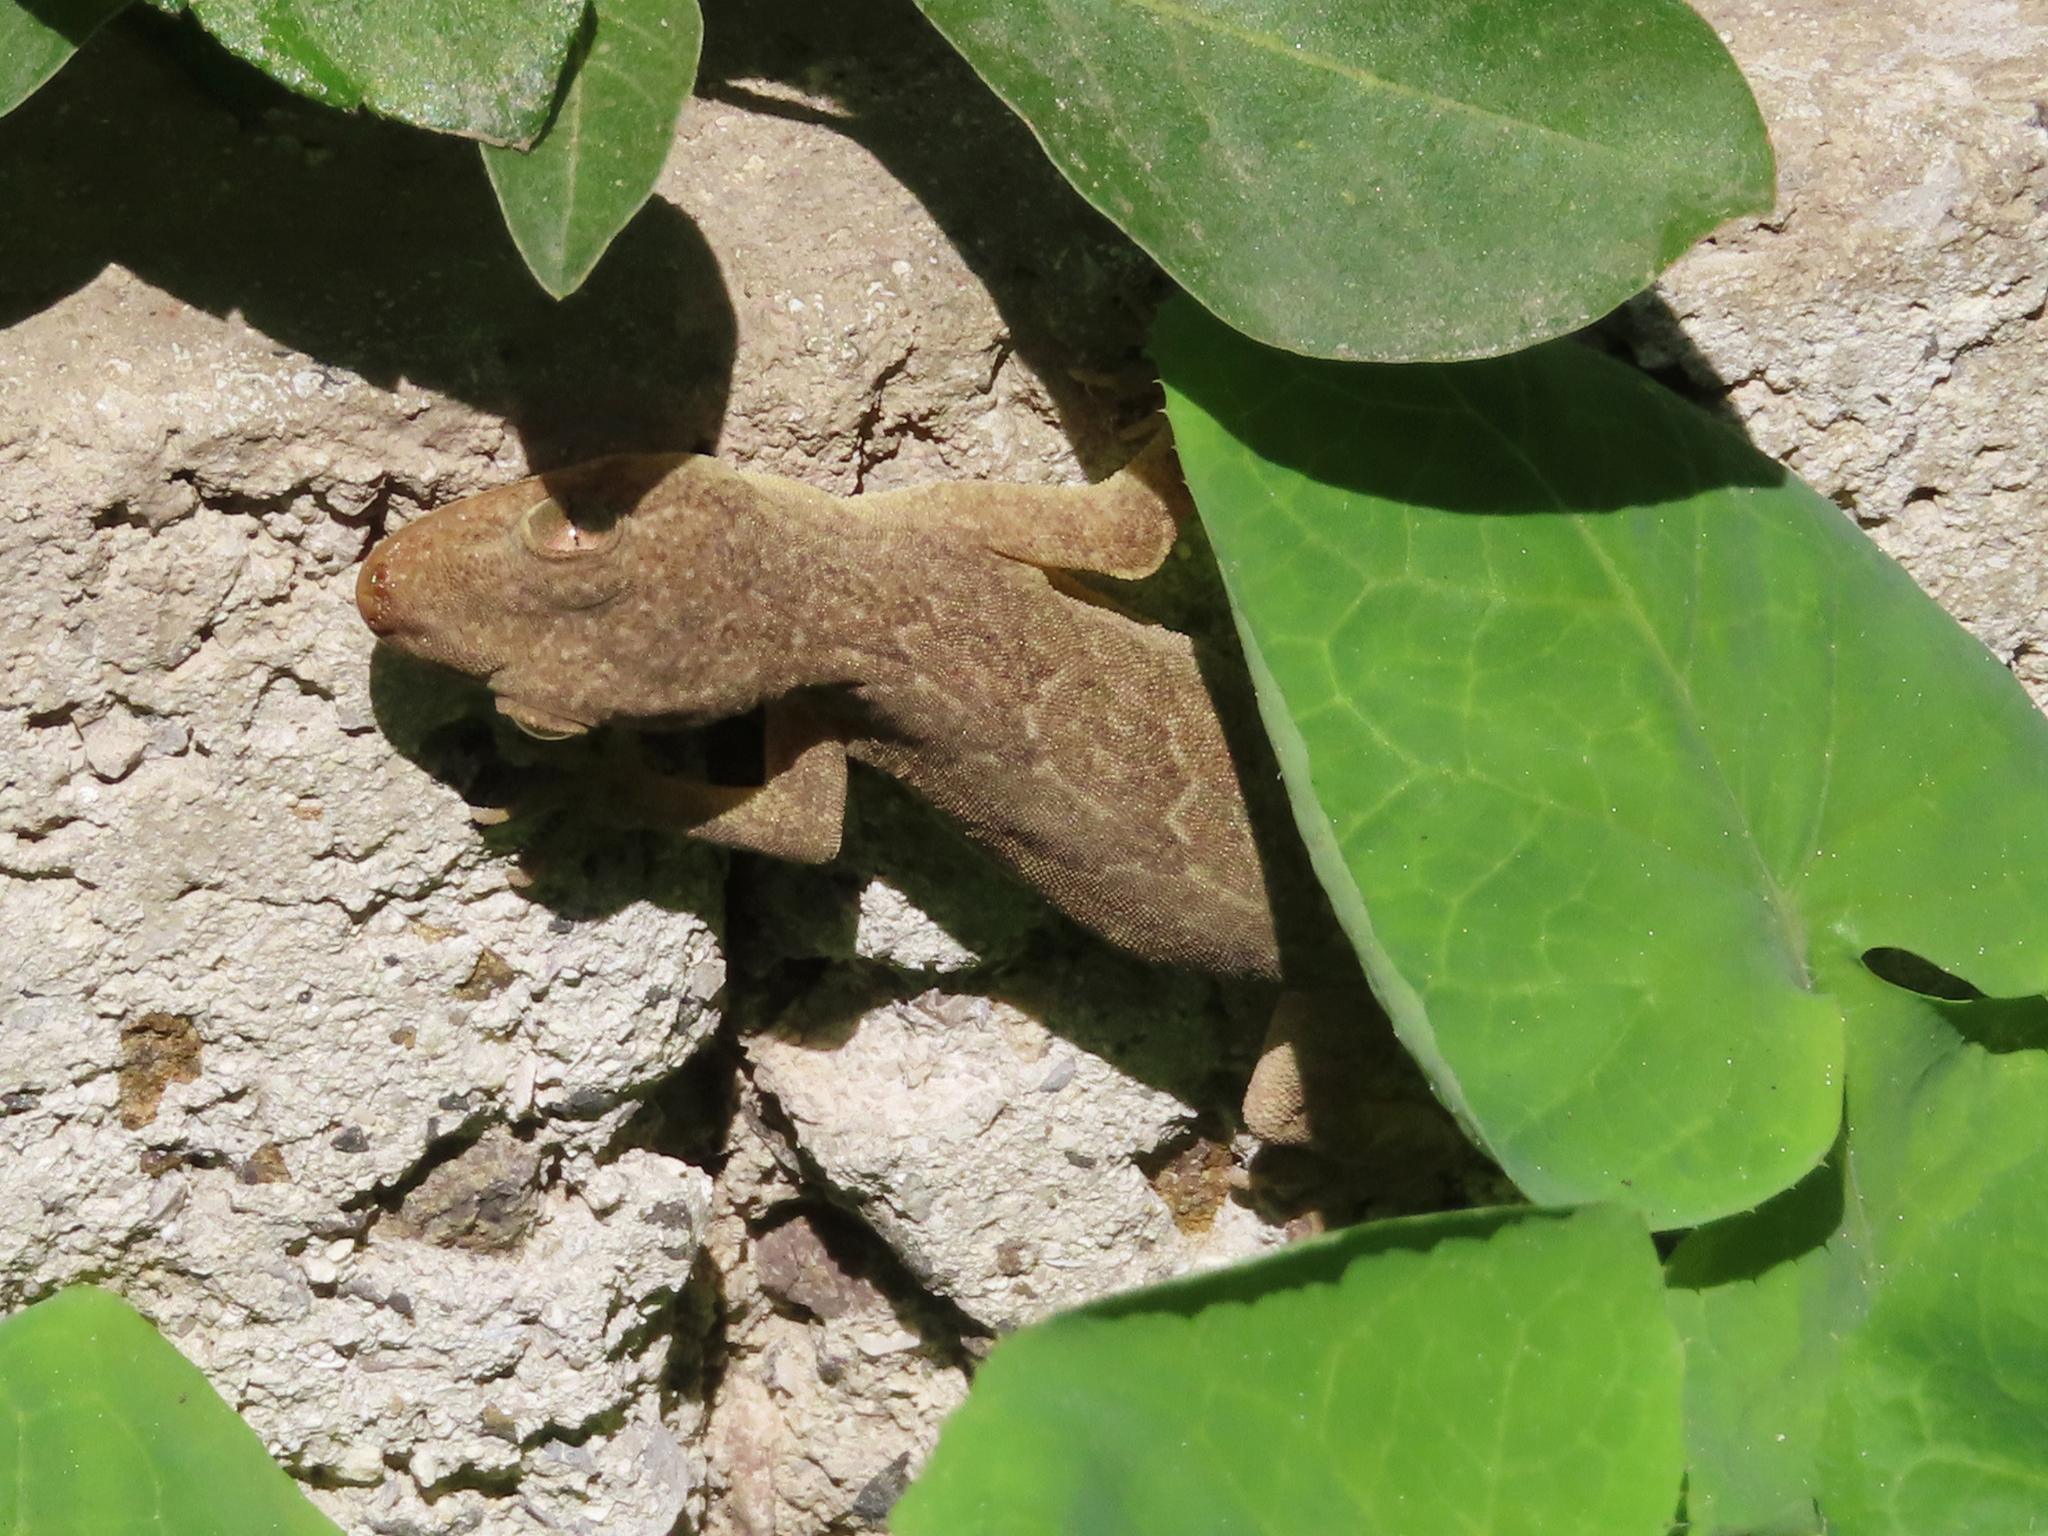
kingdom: Animalia
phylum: Chordata
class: Squamata
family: Gekkonidae
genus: Hemidactylus
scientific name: Hemidactylus flaviviridis
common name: Northern house gecko
